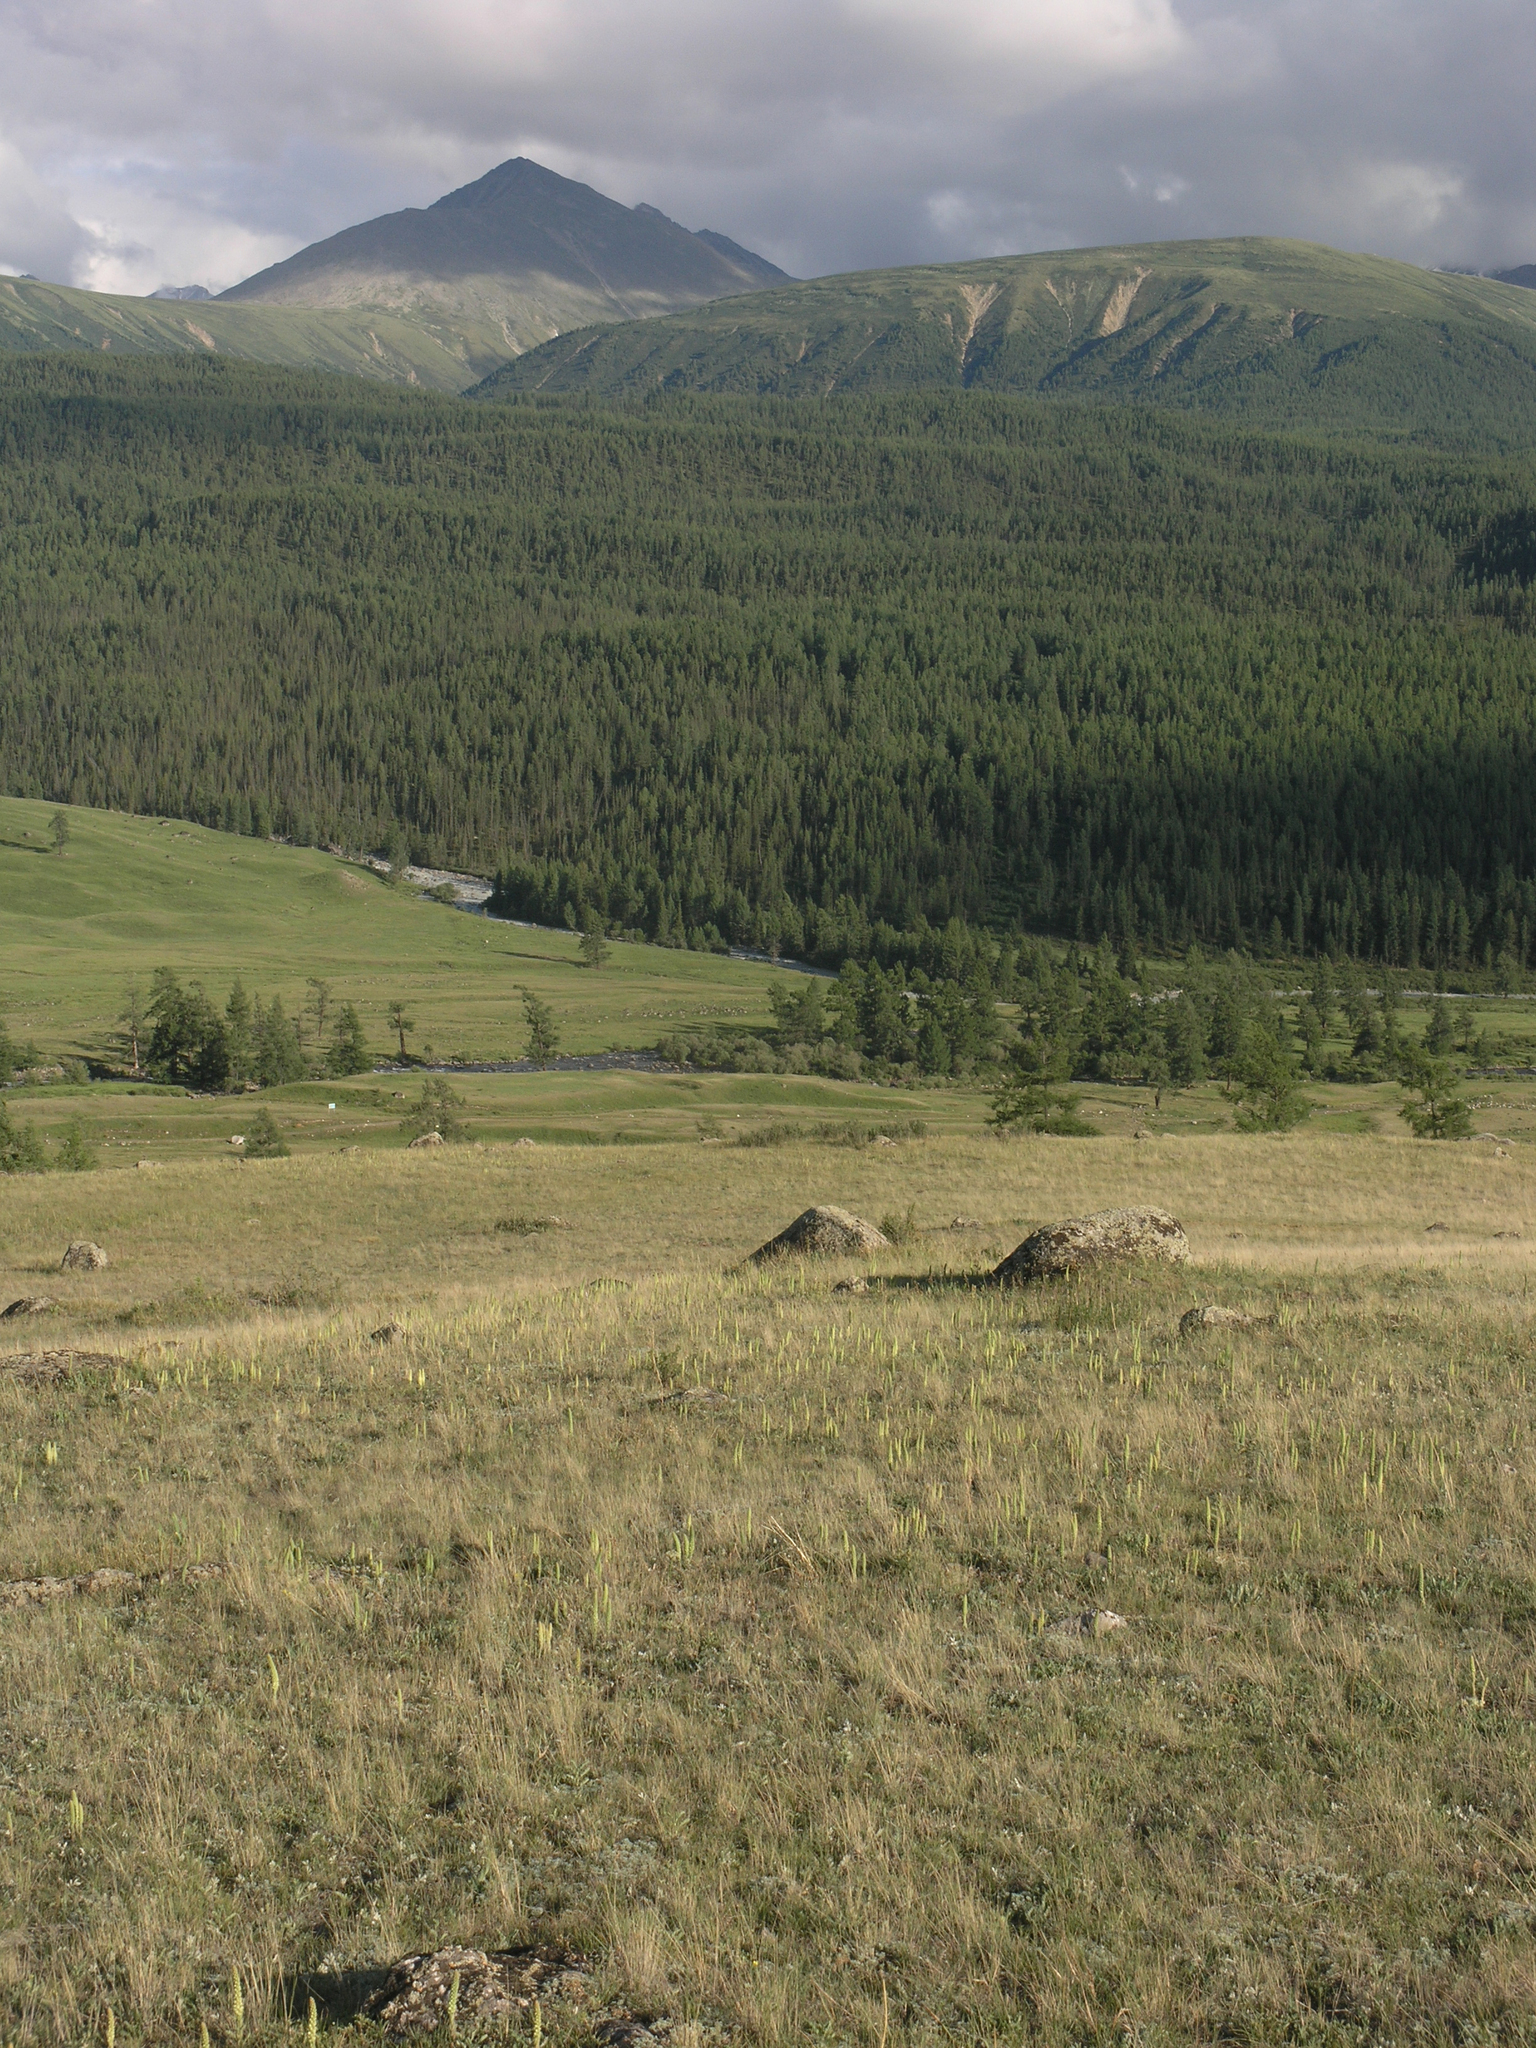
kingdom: Plantae
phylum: Tracheophyta
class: Pinopsida
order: Pinales
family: Pinaceae
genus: Larix
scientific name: Larix sibirica
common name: Siberian larch
